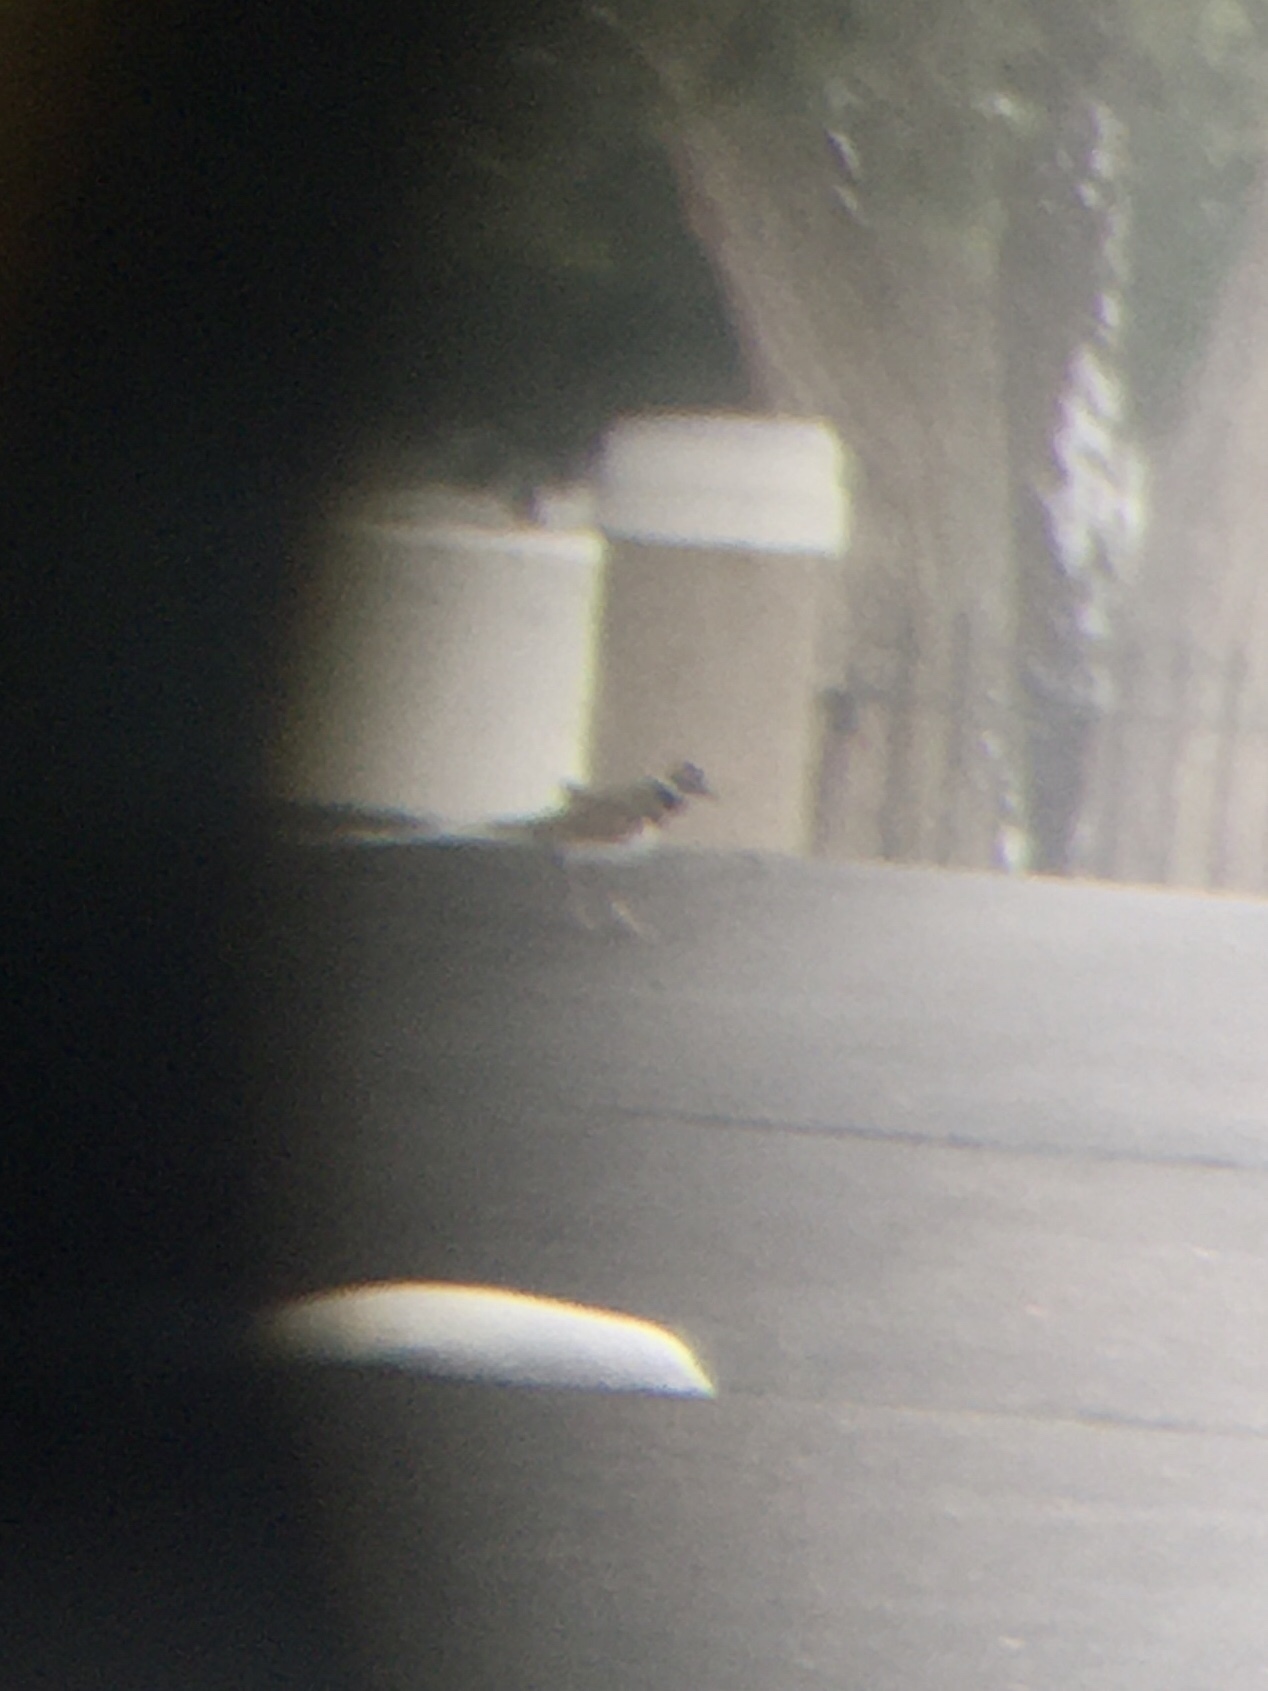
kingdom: Animalia
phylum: Chordata
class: Aves
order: Charadriiformes
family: Charadriidae
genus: Charadrius
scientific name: Charadrius vociferus
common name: Killdeer
